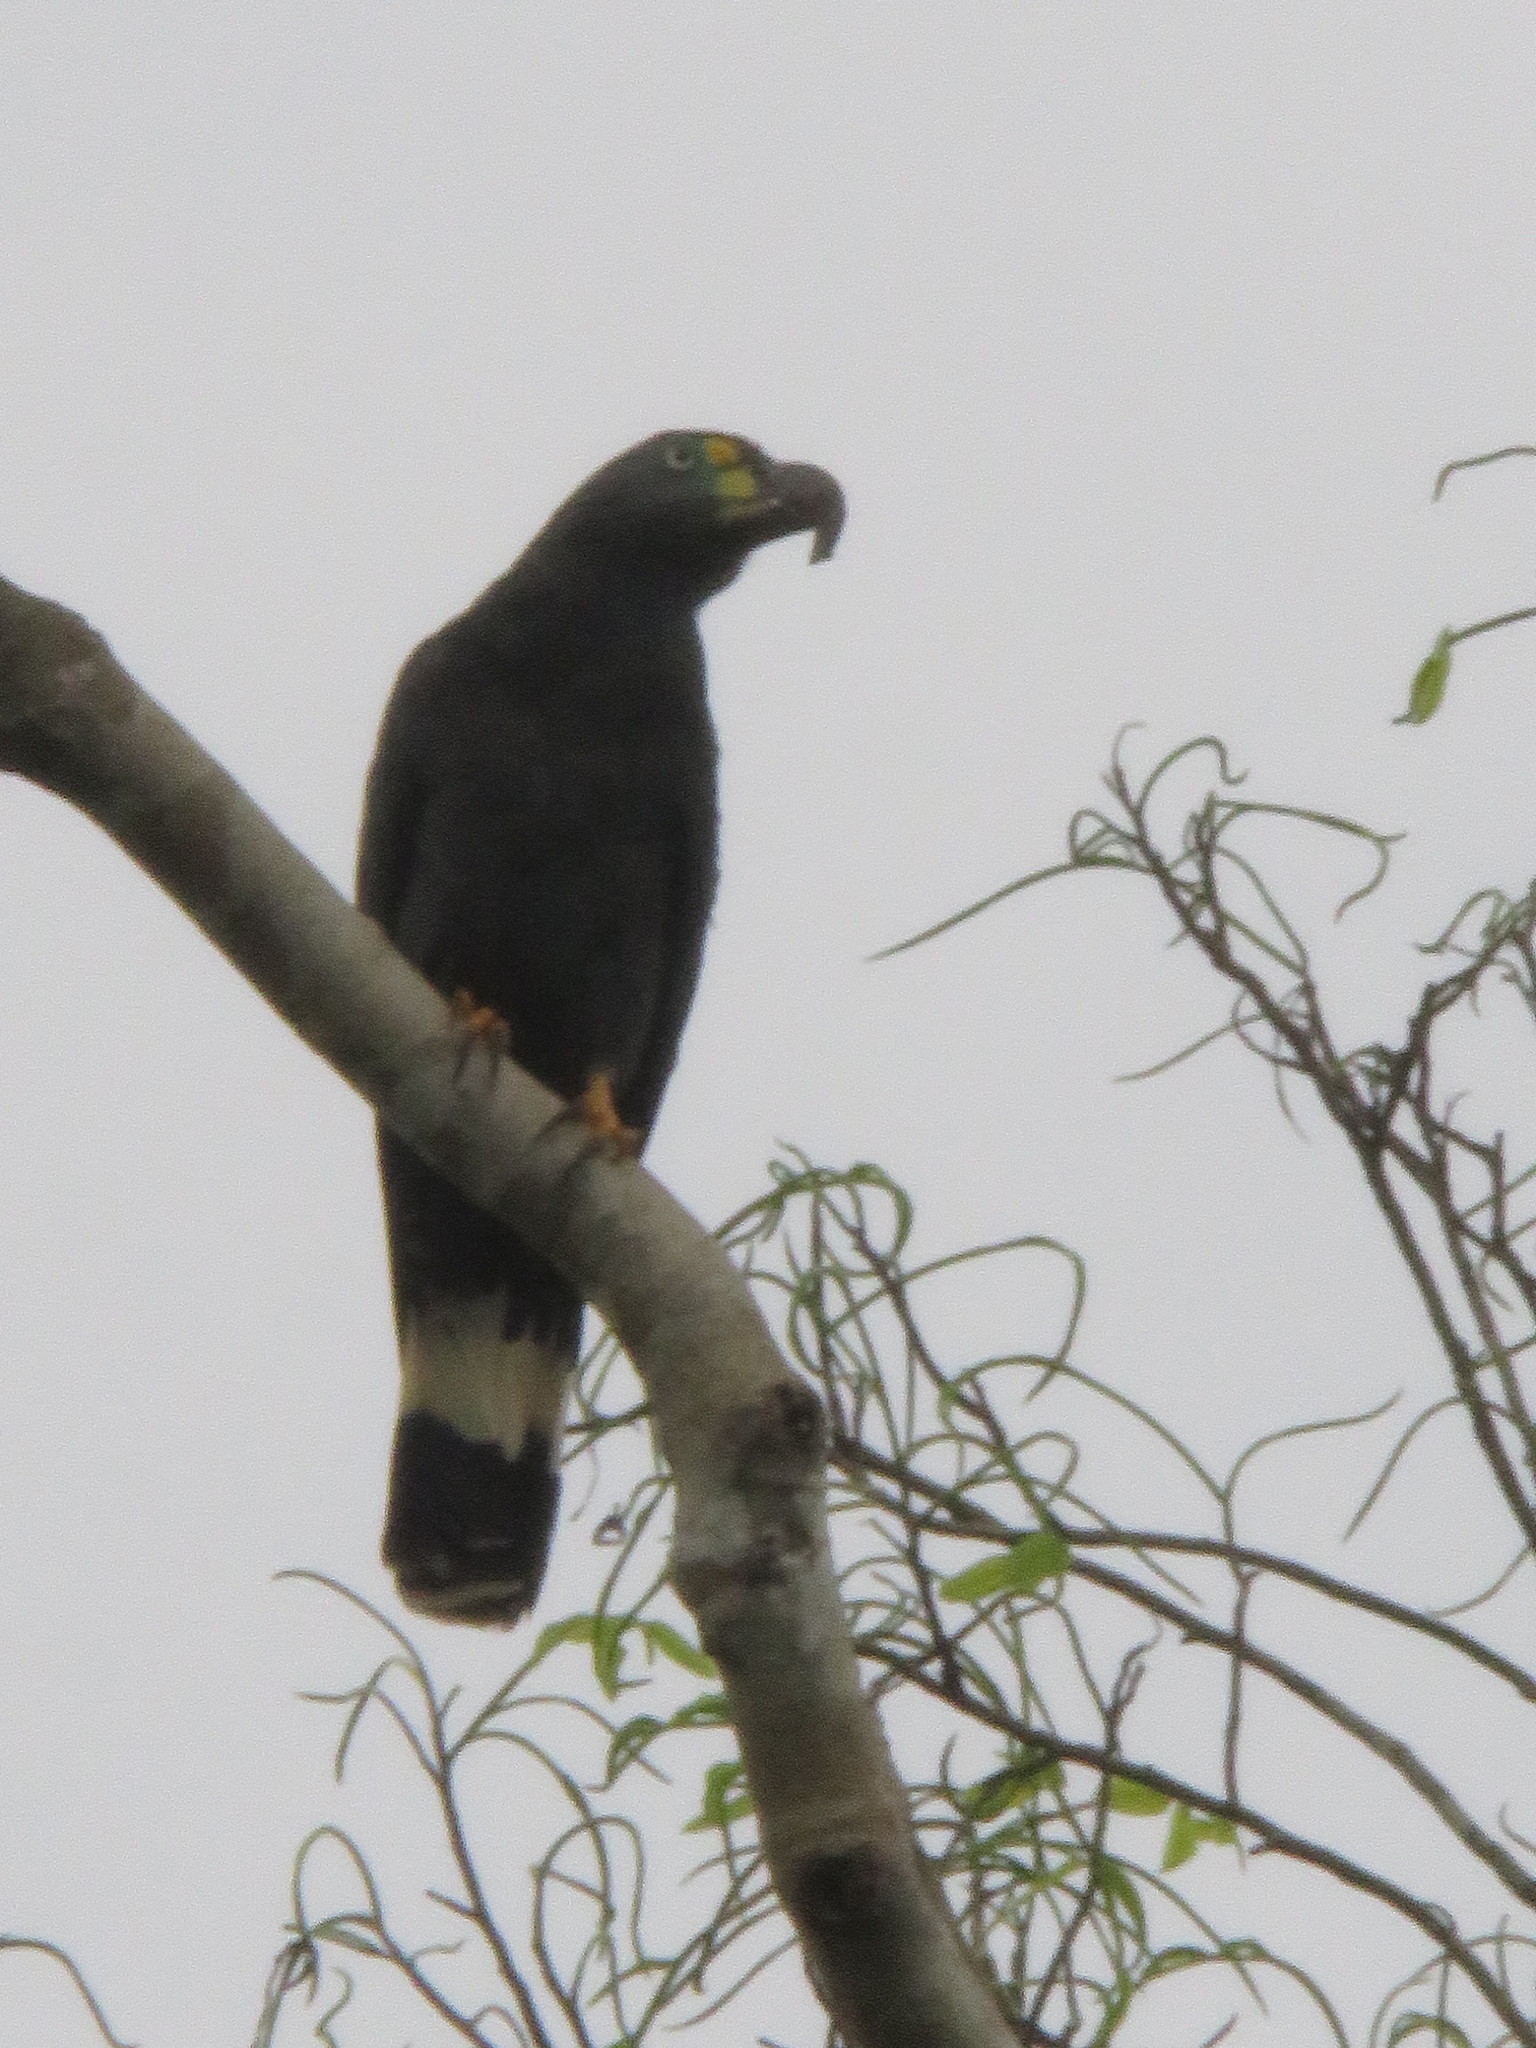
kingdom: Animalia
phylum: Chordata
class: Aves
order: Accipitriformes
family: Accipitridae
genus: Chondrohierax
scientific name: Chondrohierax uncinatus
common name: Hook-billed kite
